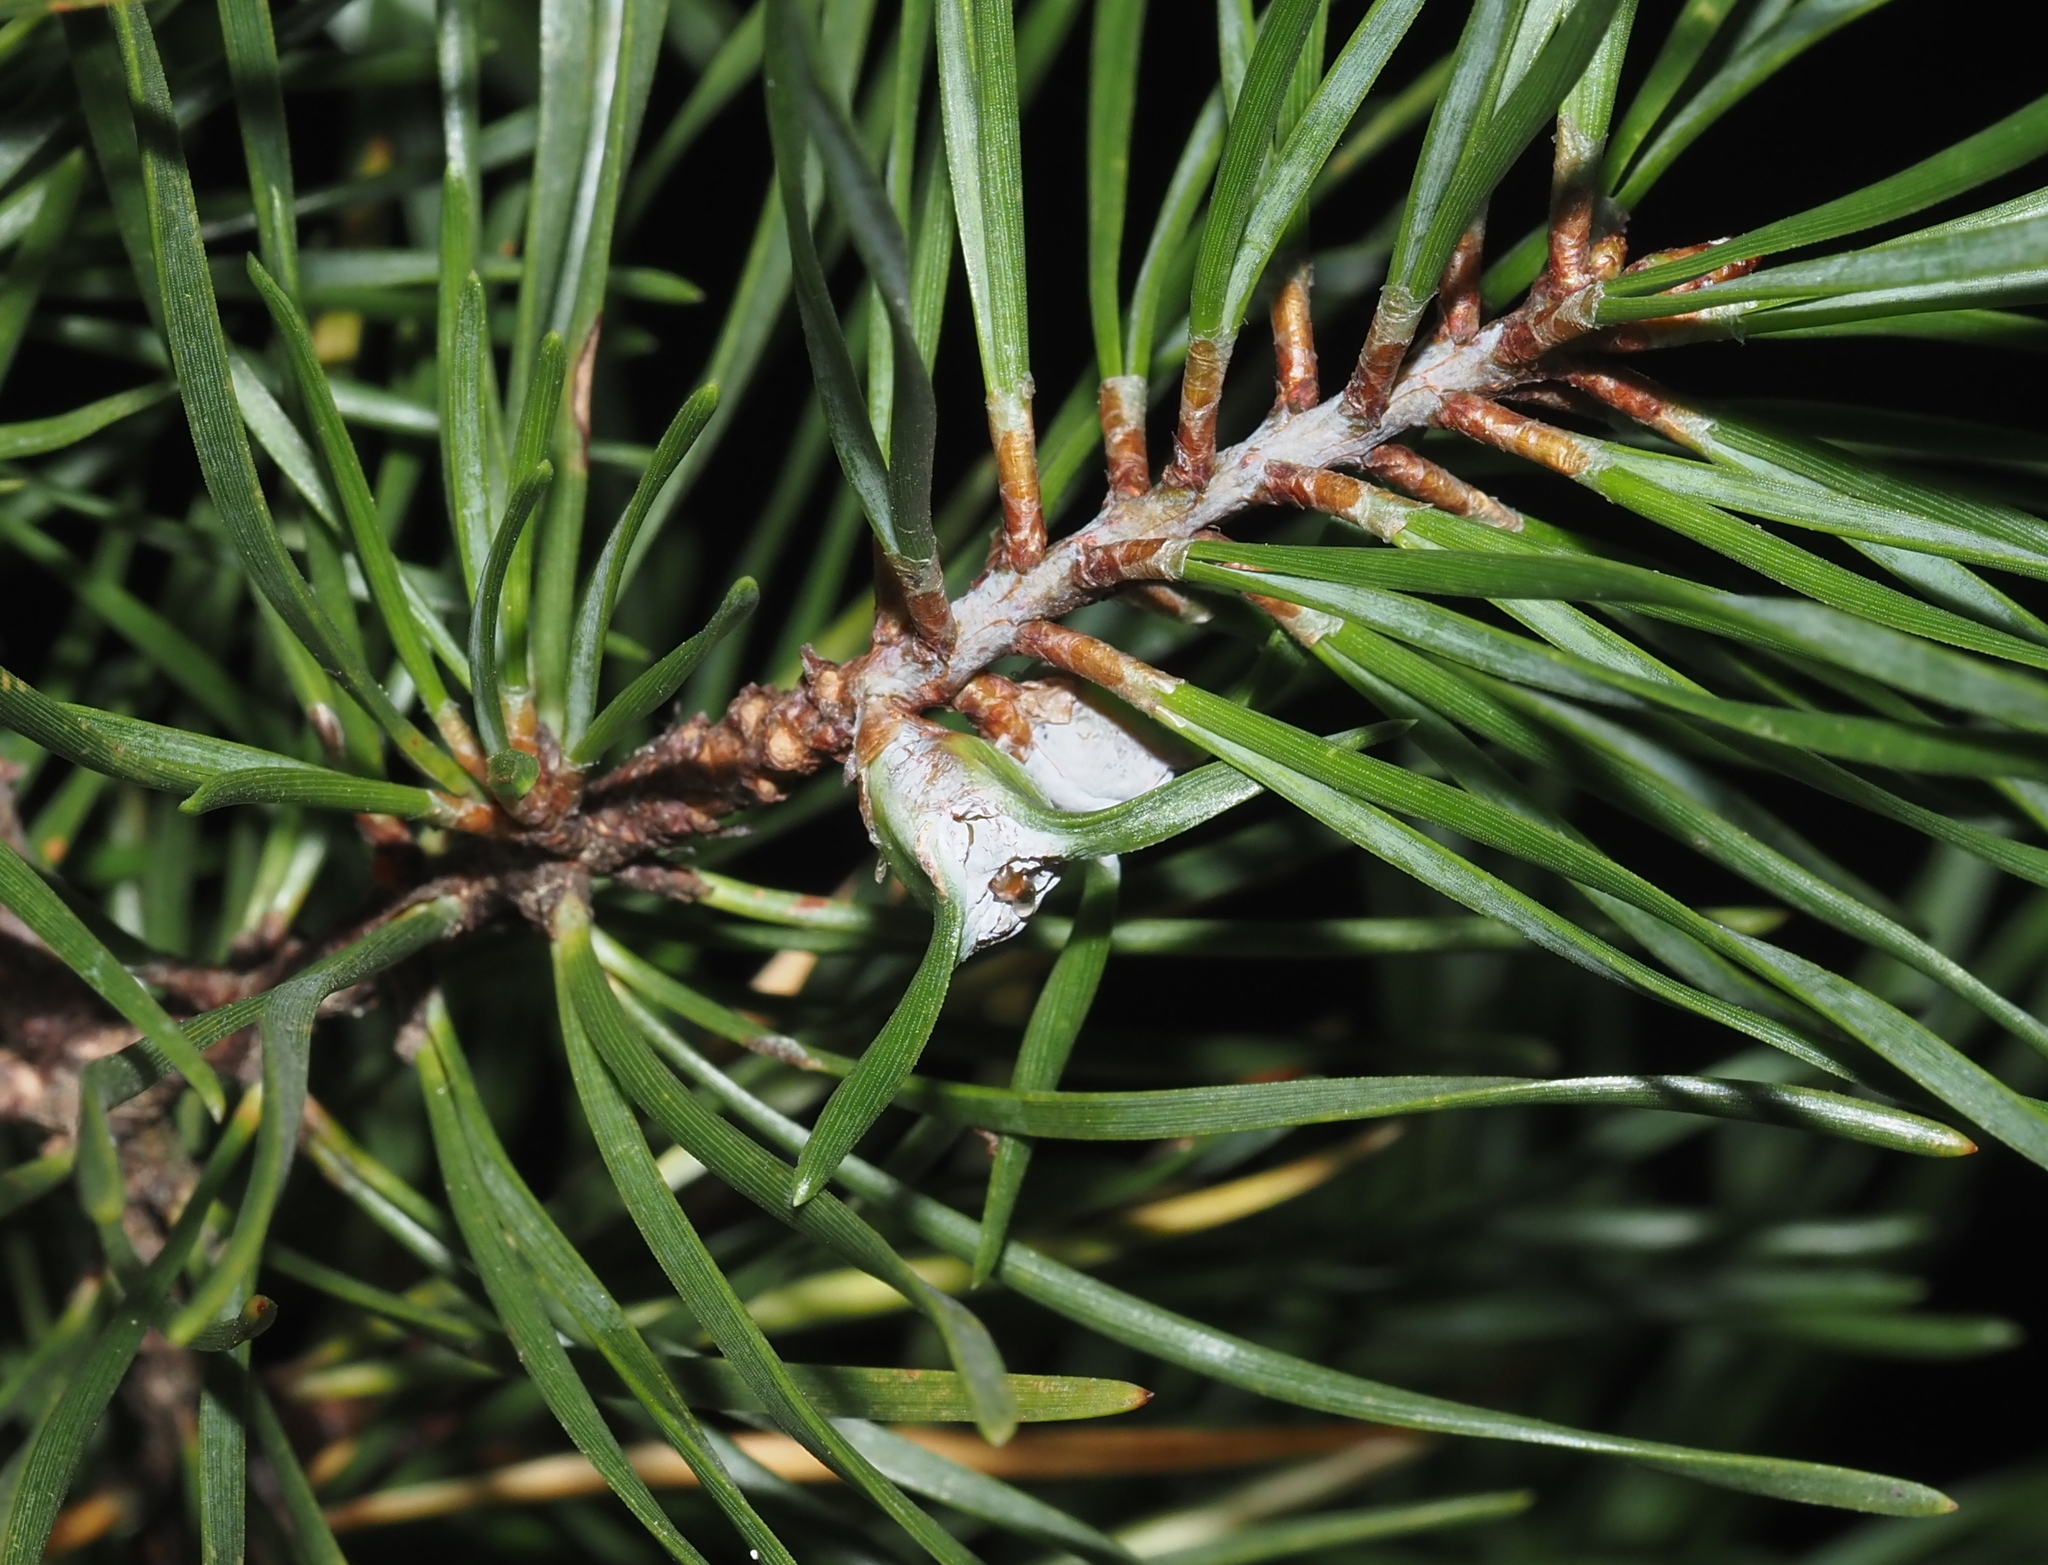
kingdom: Animalia
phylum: Arthropoda
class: Insecta
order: Diptera
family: Cecidomyiidae
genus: Thecodiplosis
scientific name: Thecodiplosis brachynteroides
